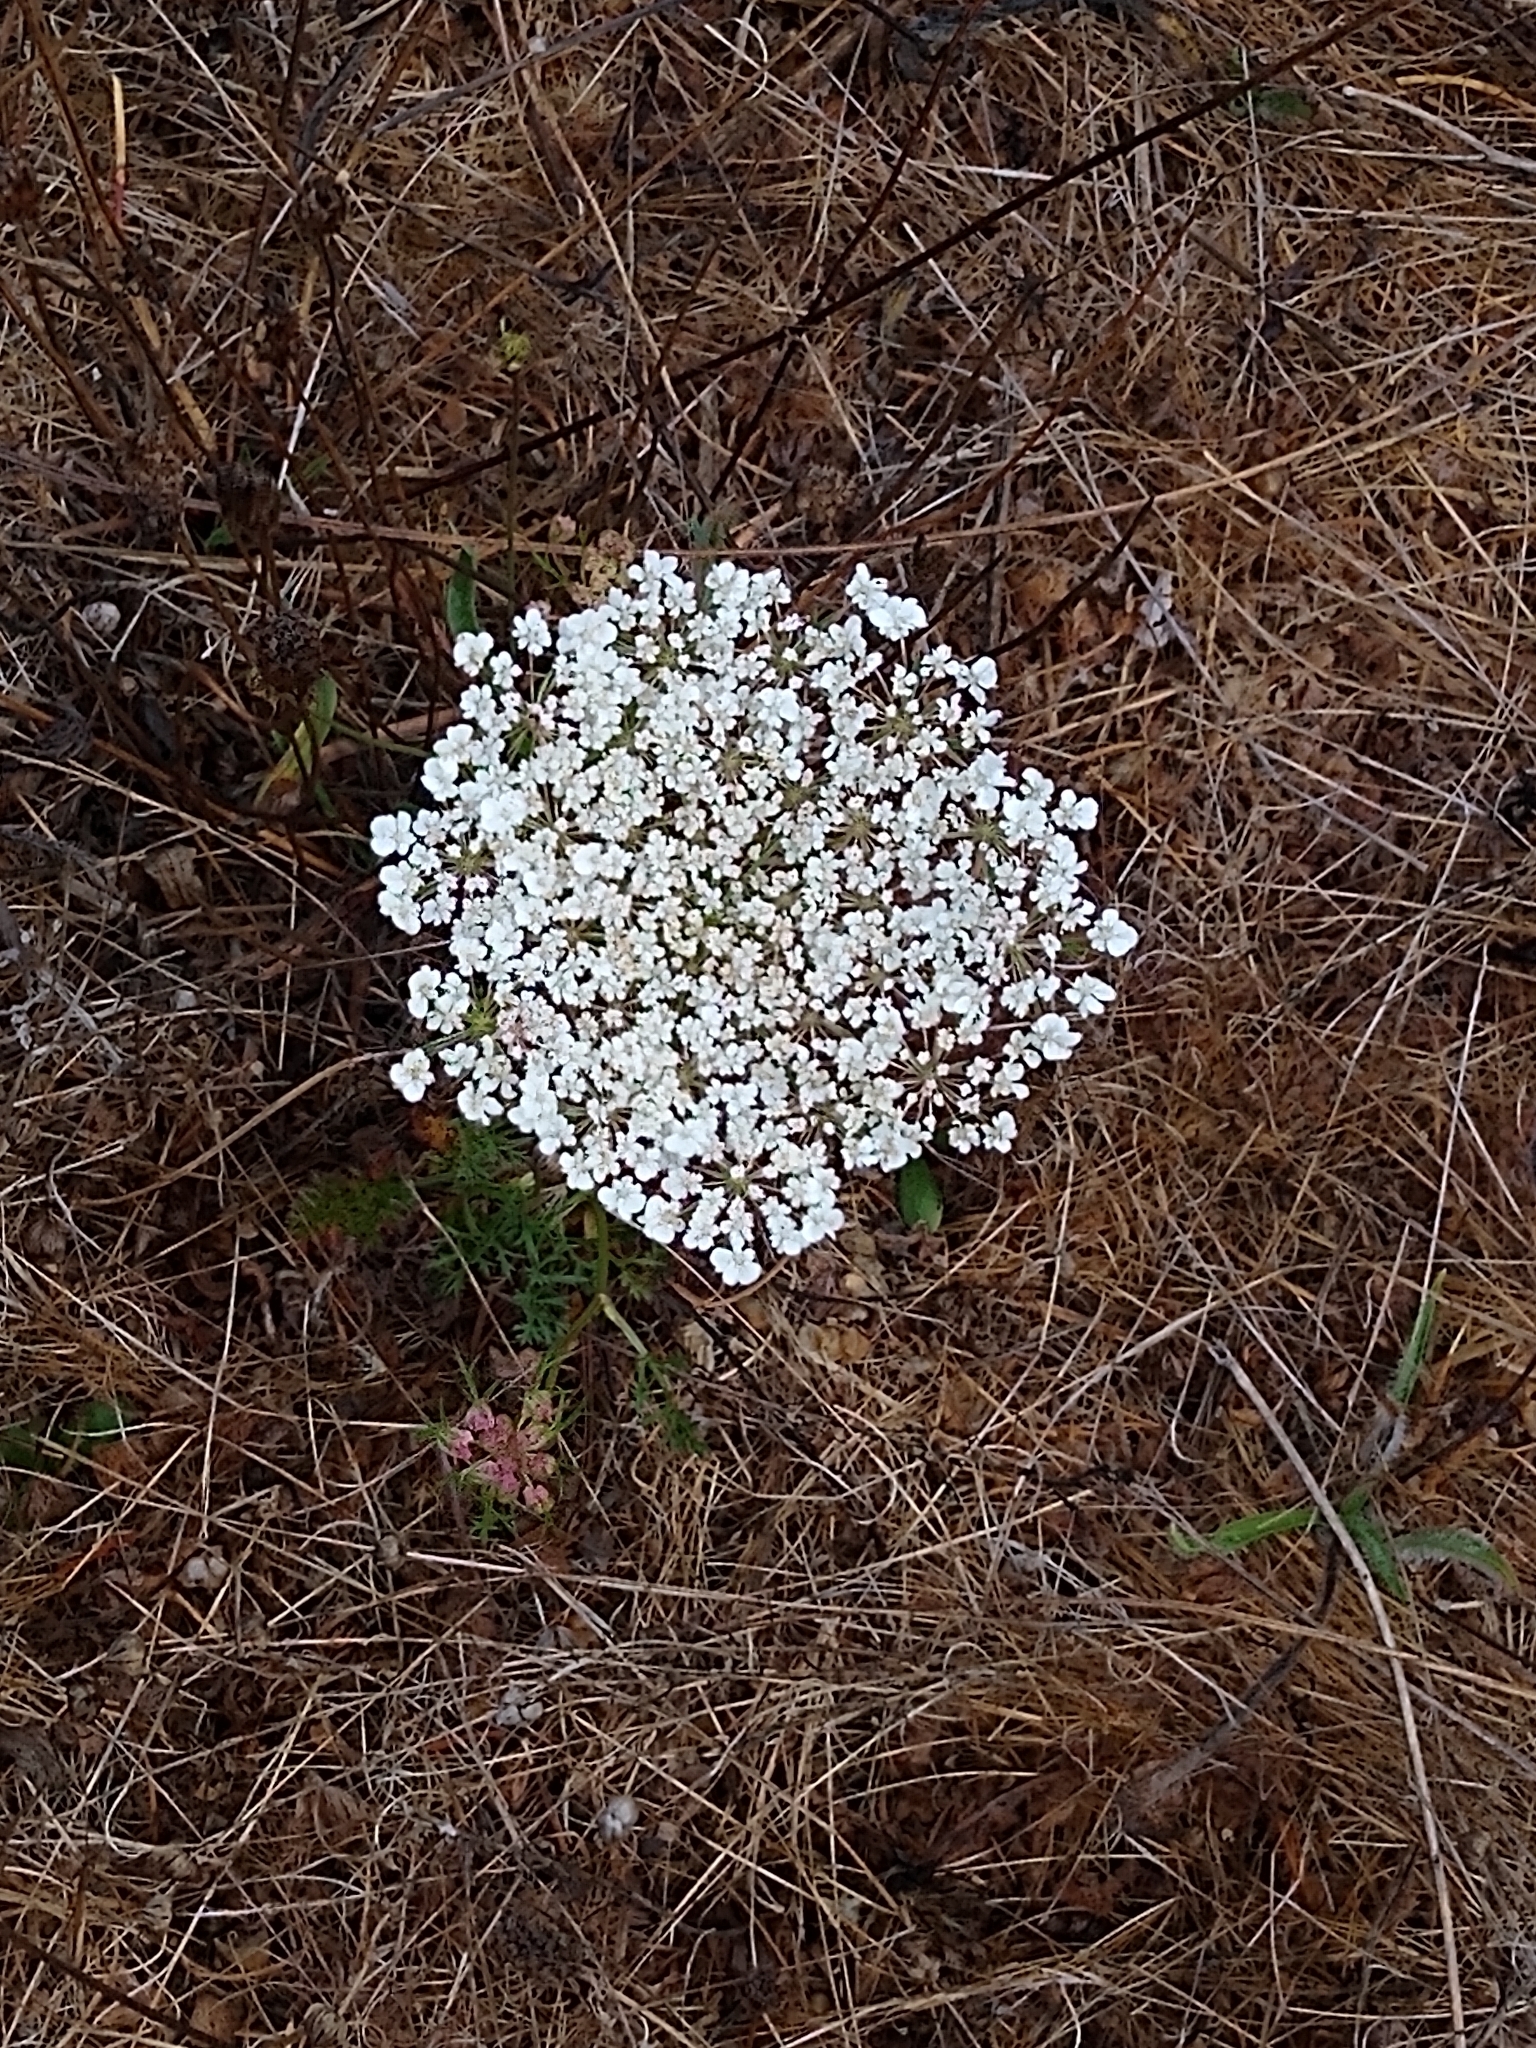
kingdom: Plantae
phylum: Tracheophyta
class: Magnoliopsida
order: Apiales
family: Apiaceae
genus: Daucus
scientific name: Daucus carota
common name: Wild carrot
